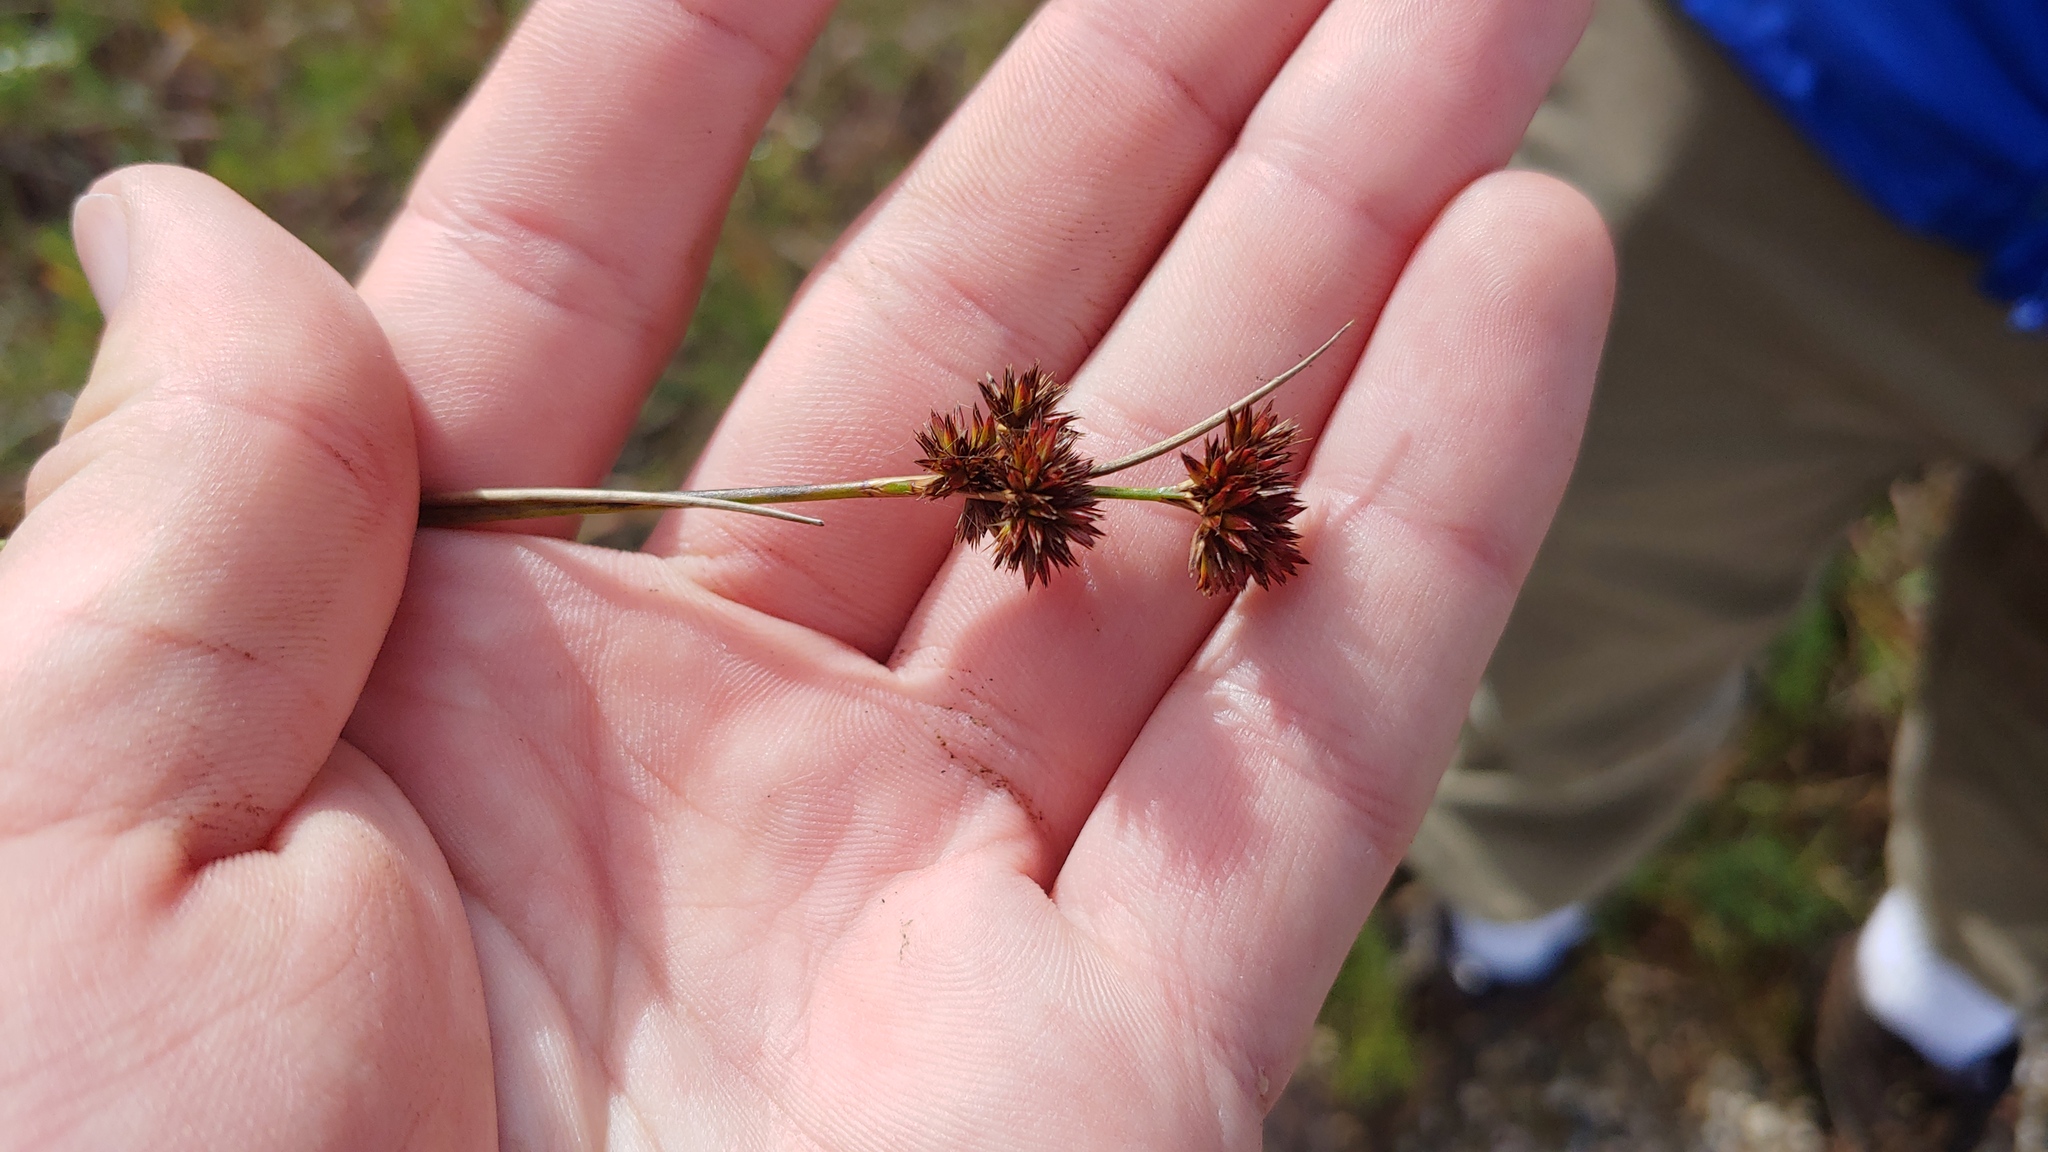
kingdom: Plantae
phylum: Tracheophyta
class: Liliopsida
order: Poales
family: Juncaceae
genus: Juncus
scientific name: Juncus canadensis
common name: Canada rush
